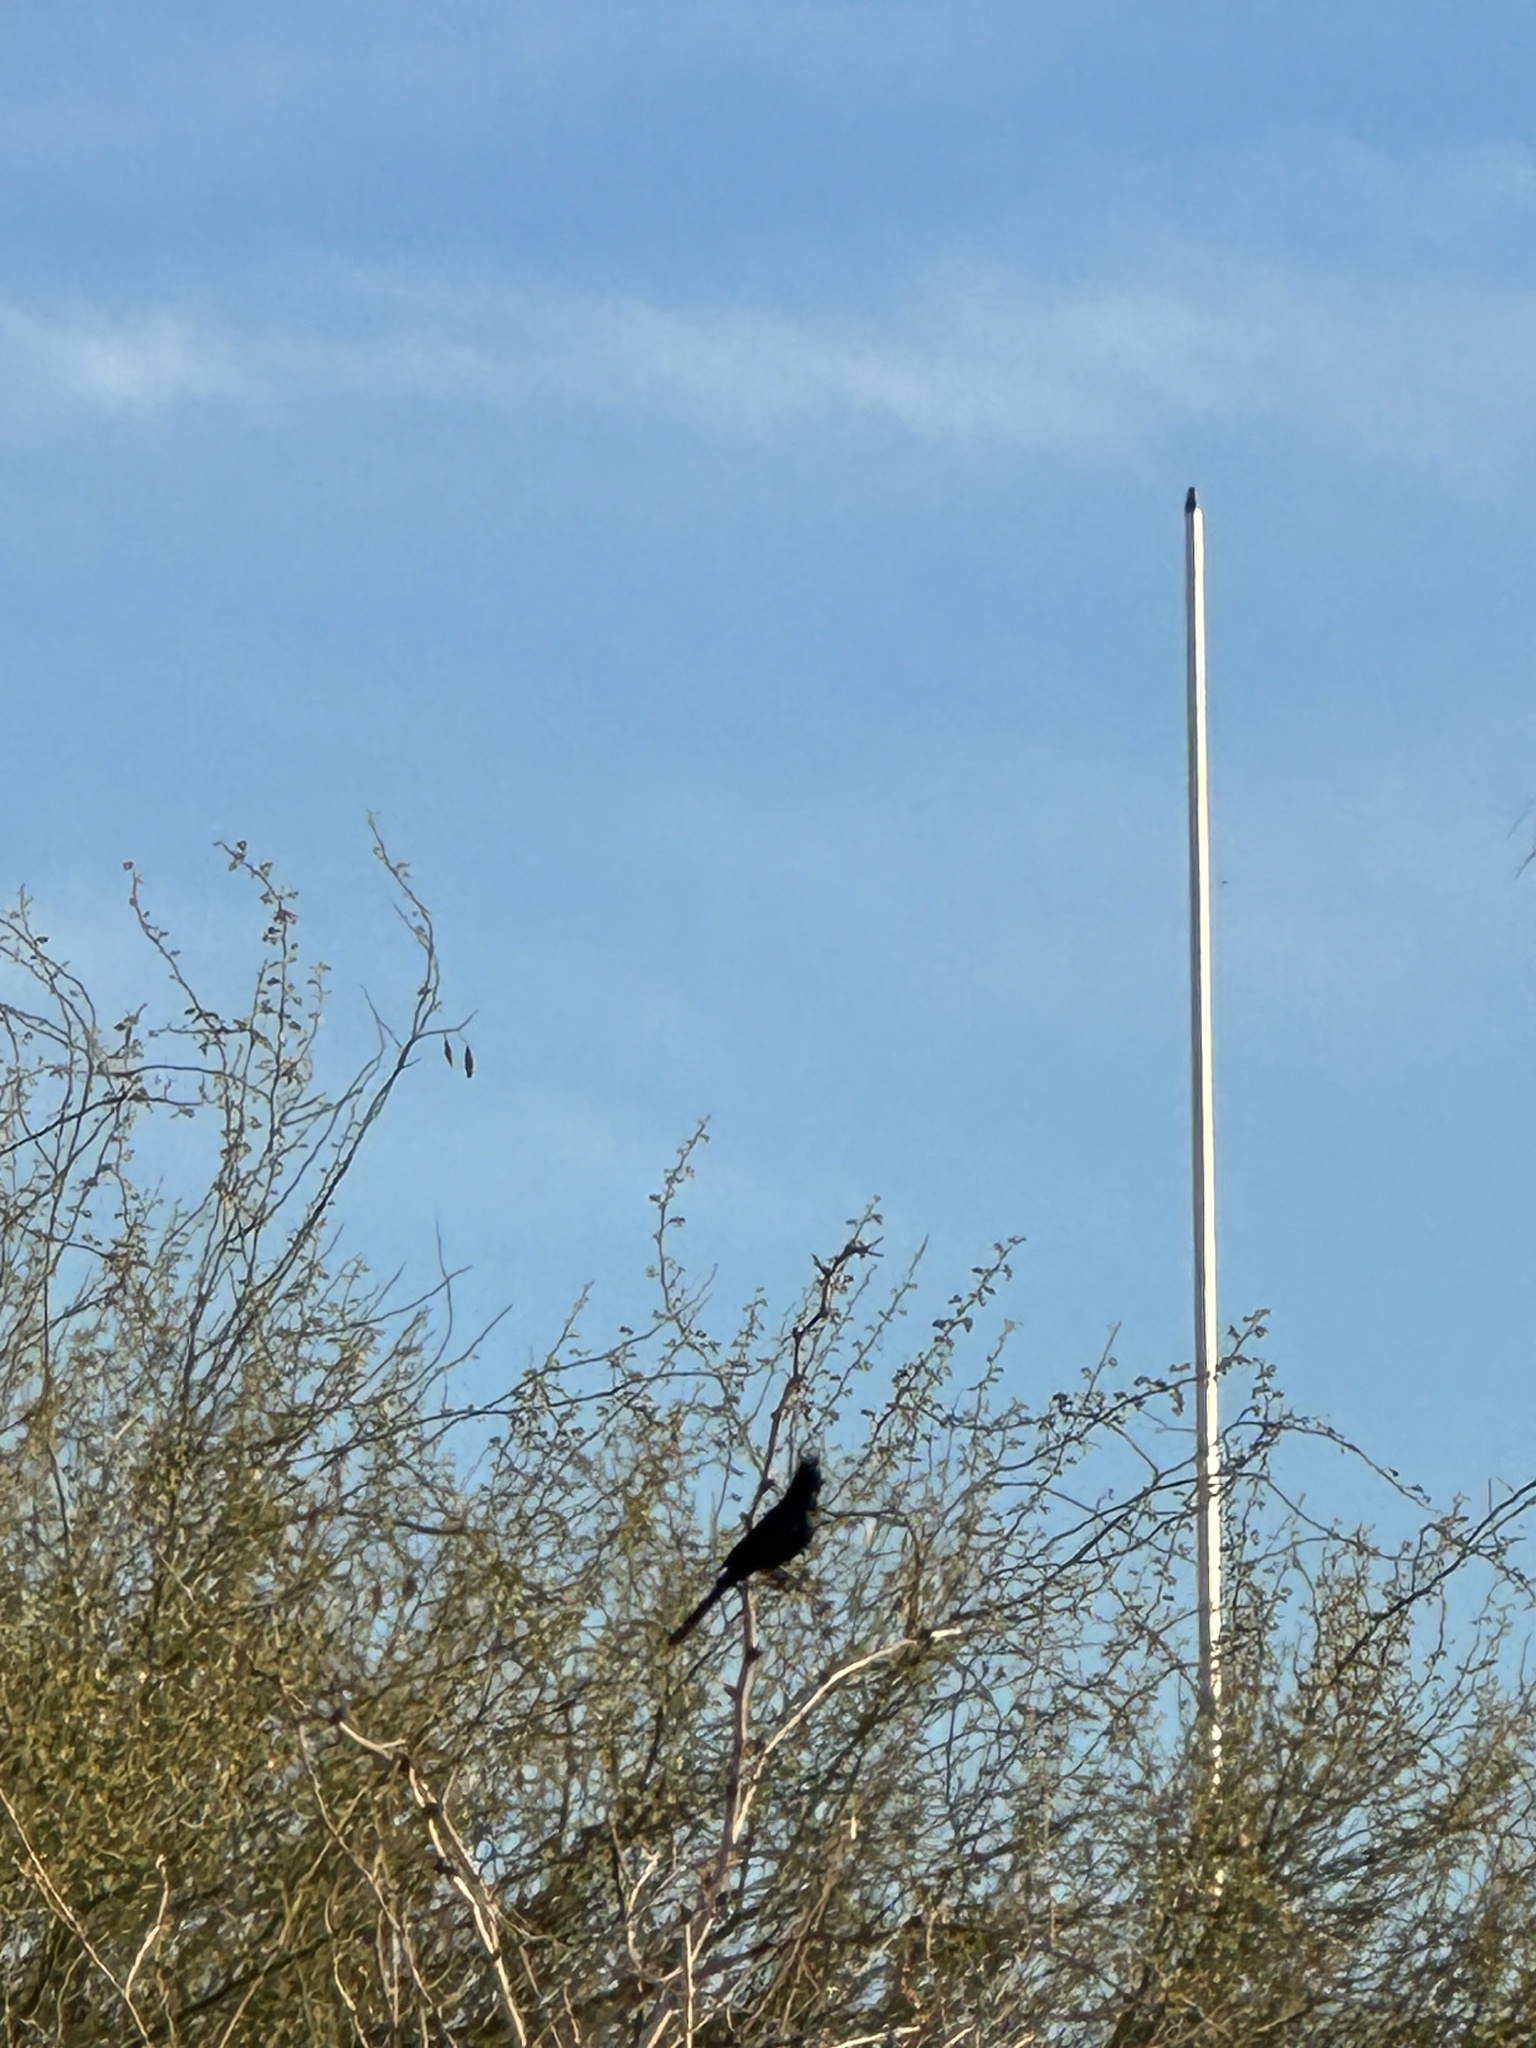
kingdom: Animalia
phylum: Chordata
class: Aves
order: Passeriformes
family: Ptilogonatidae
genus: Phainopepla
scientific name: Phainopepla nitens
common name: Phainopepla
